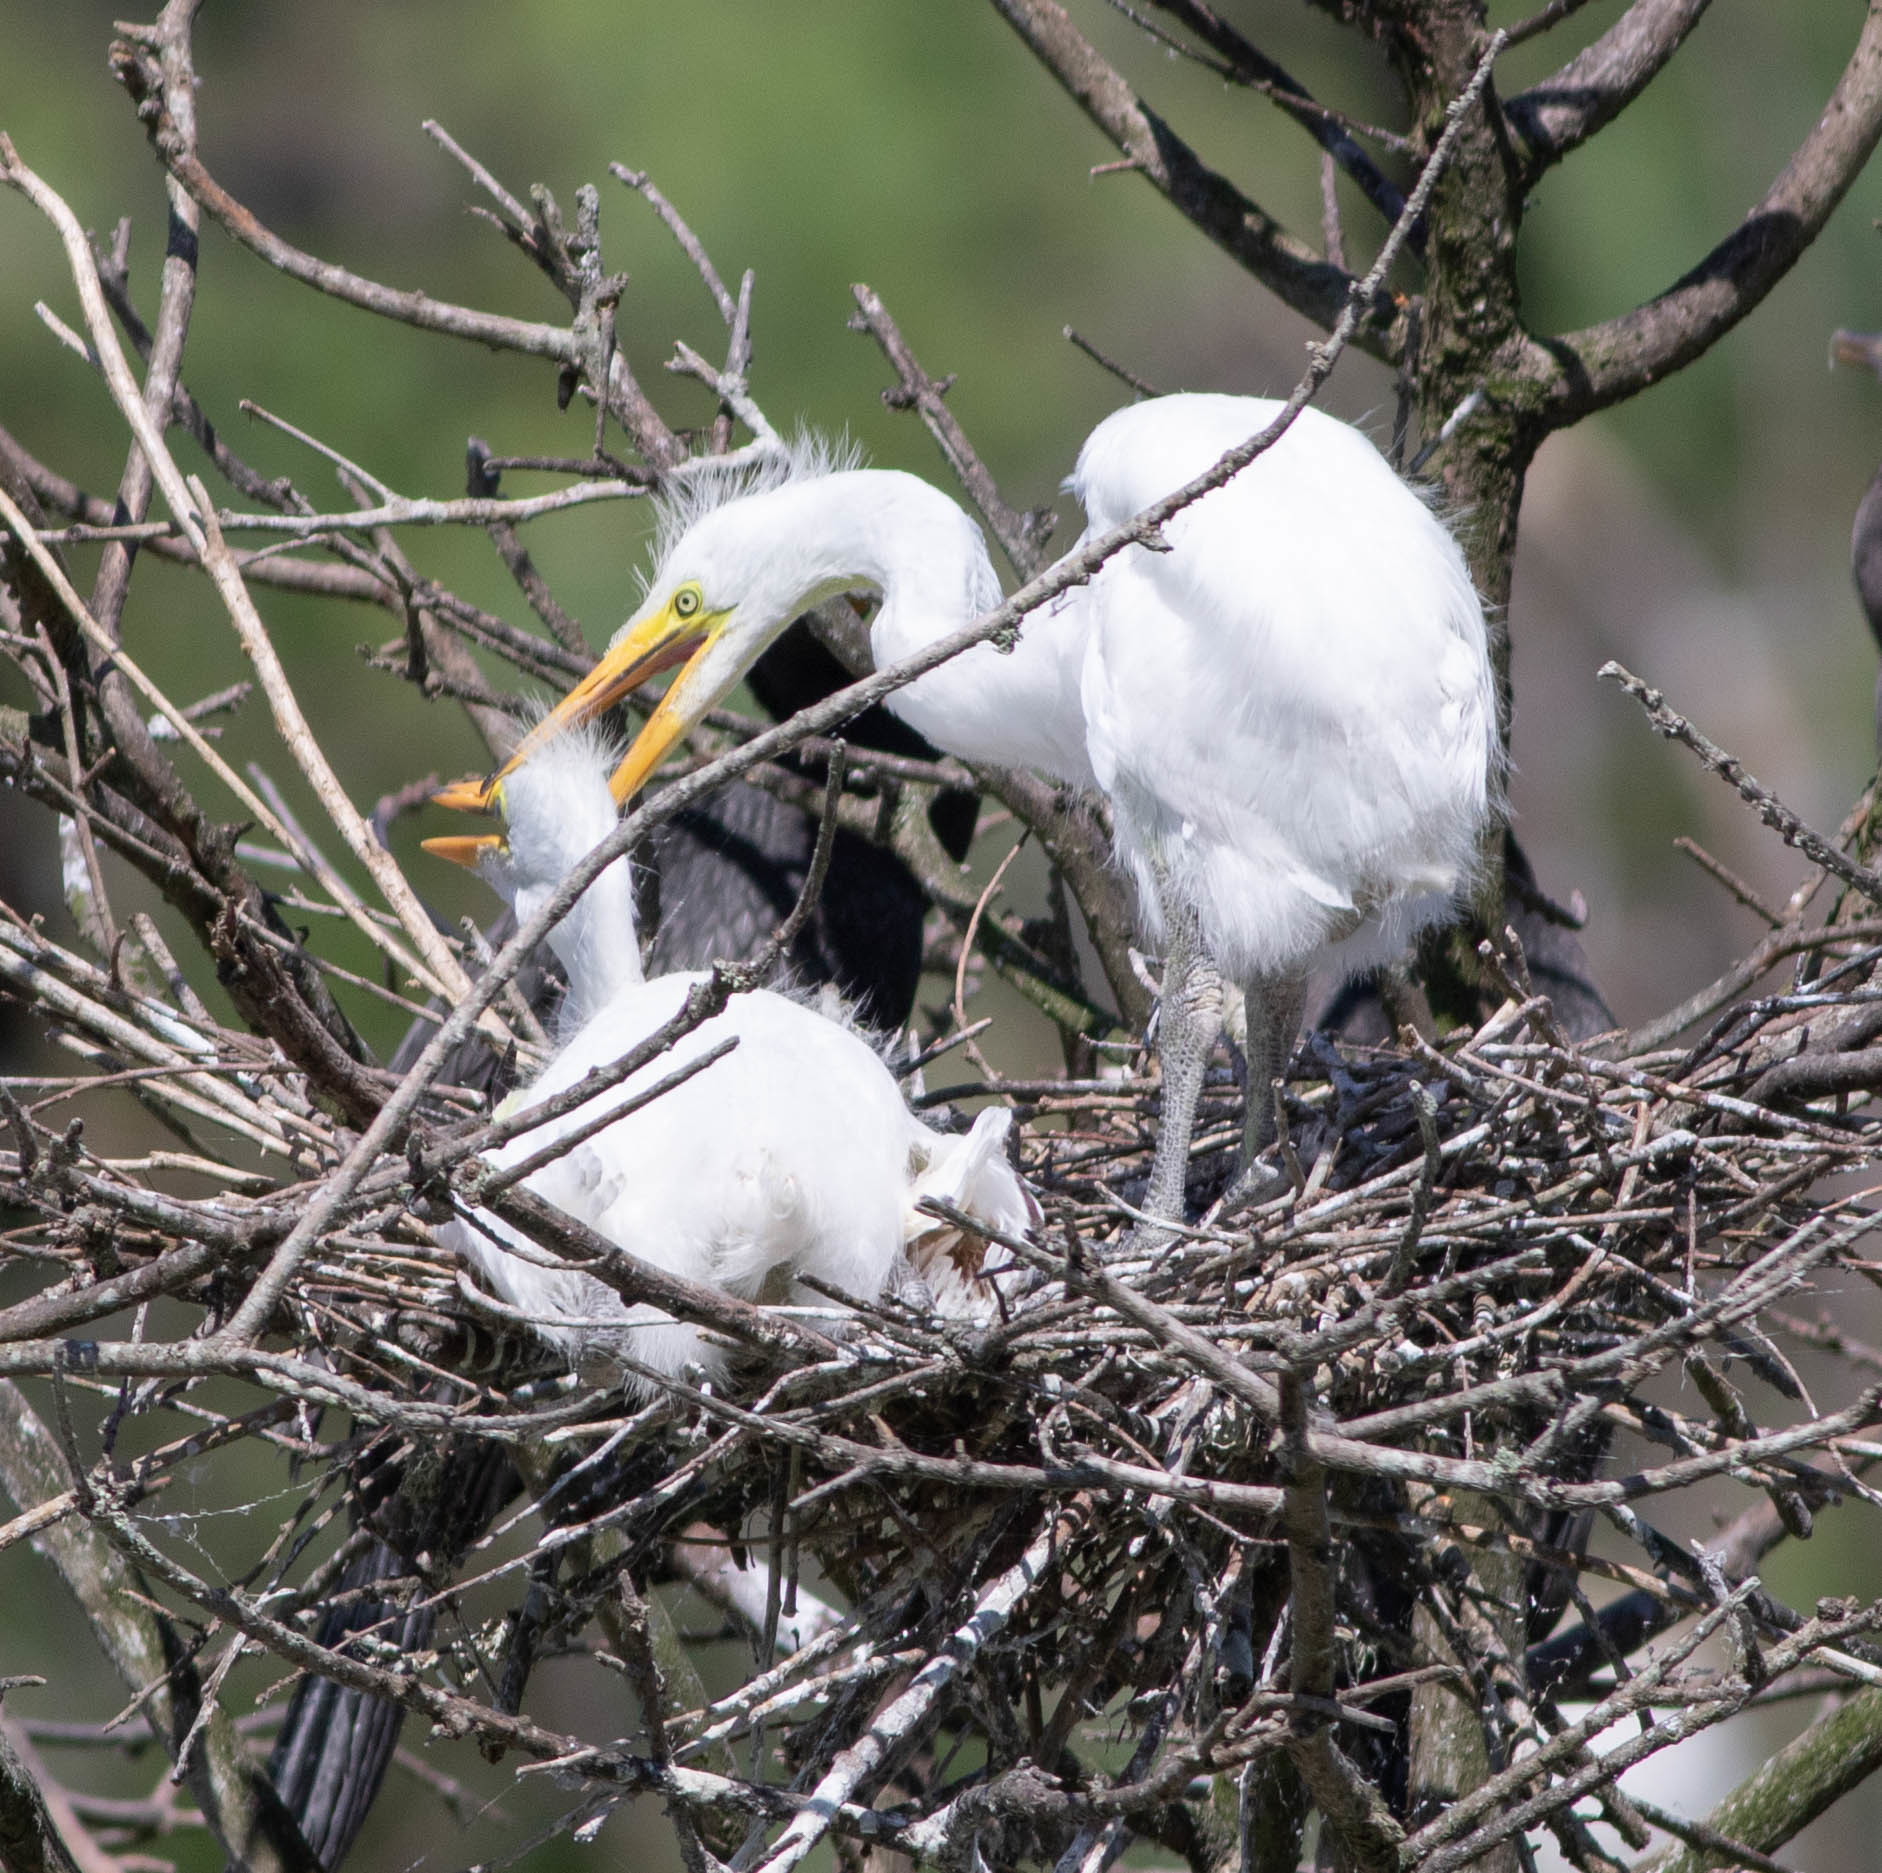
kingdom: Animalia
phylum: Chordata
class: Aves
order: Pelecaniformes
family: Ardeidae
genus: Ardea
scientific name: Ardea alba
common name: Great egret
